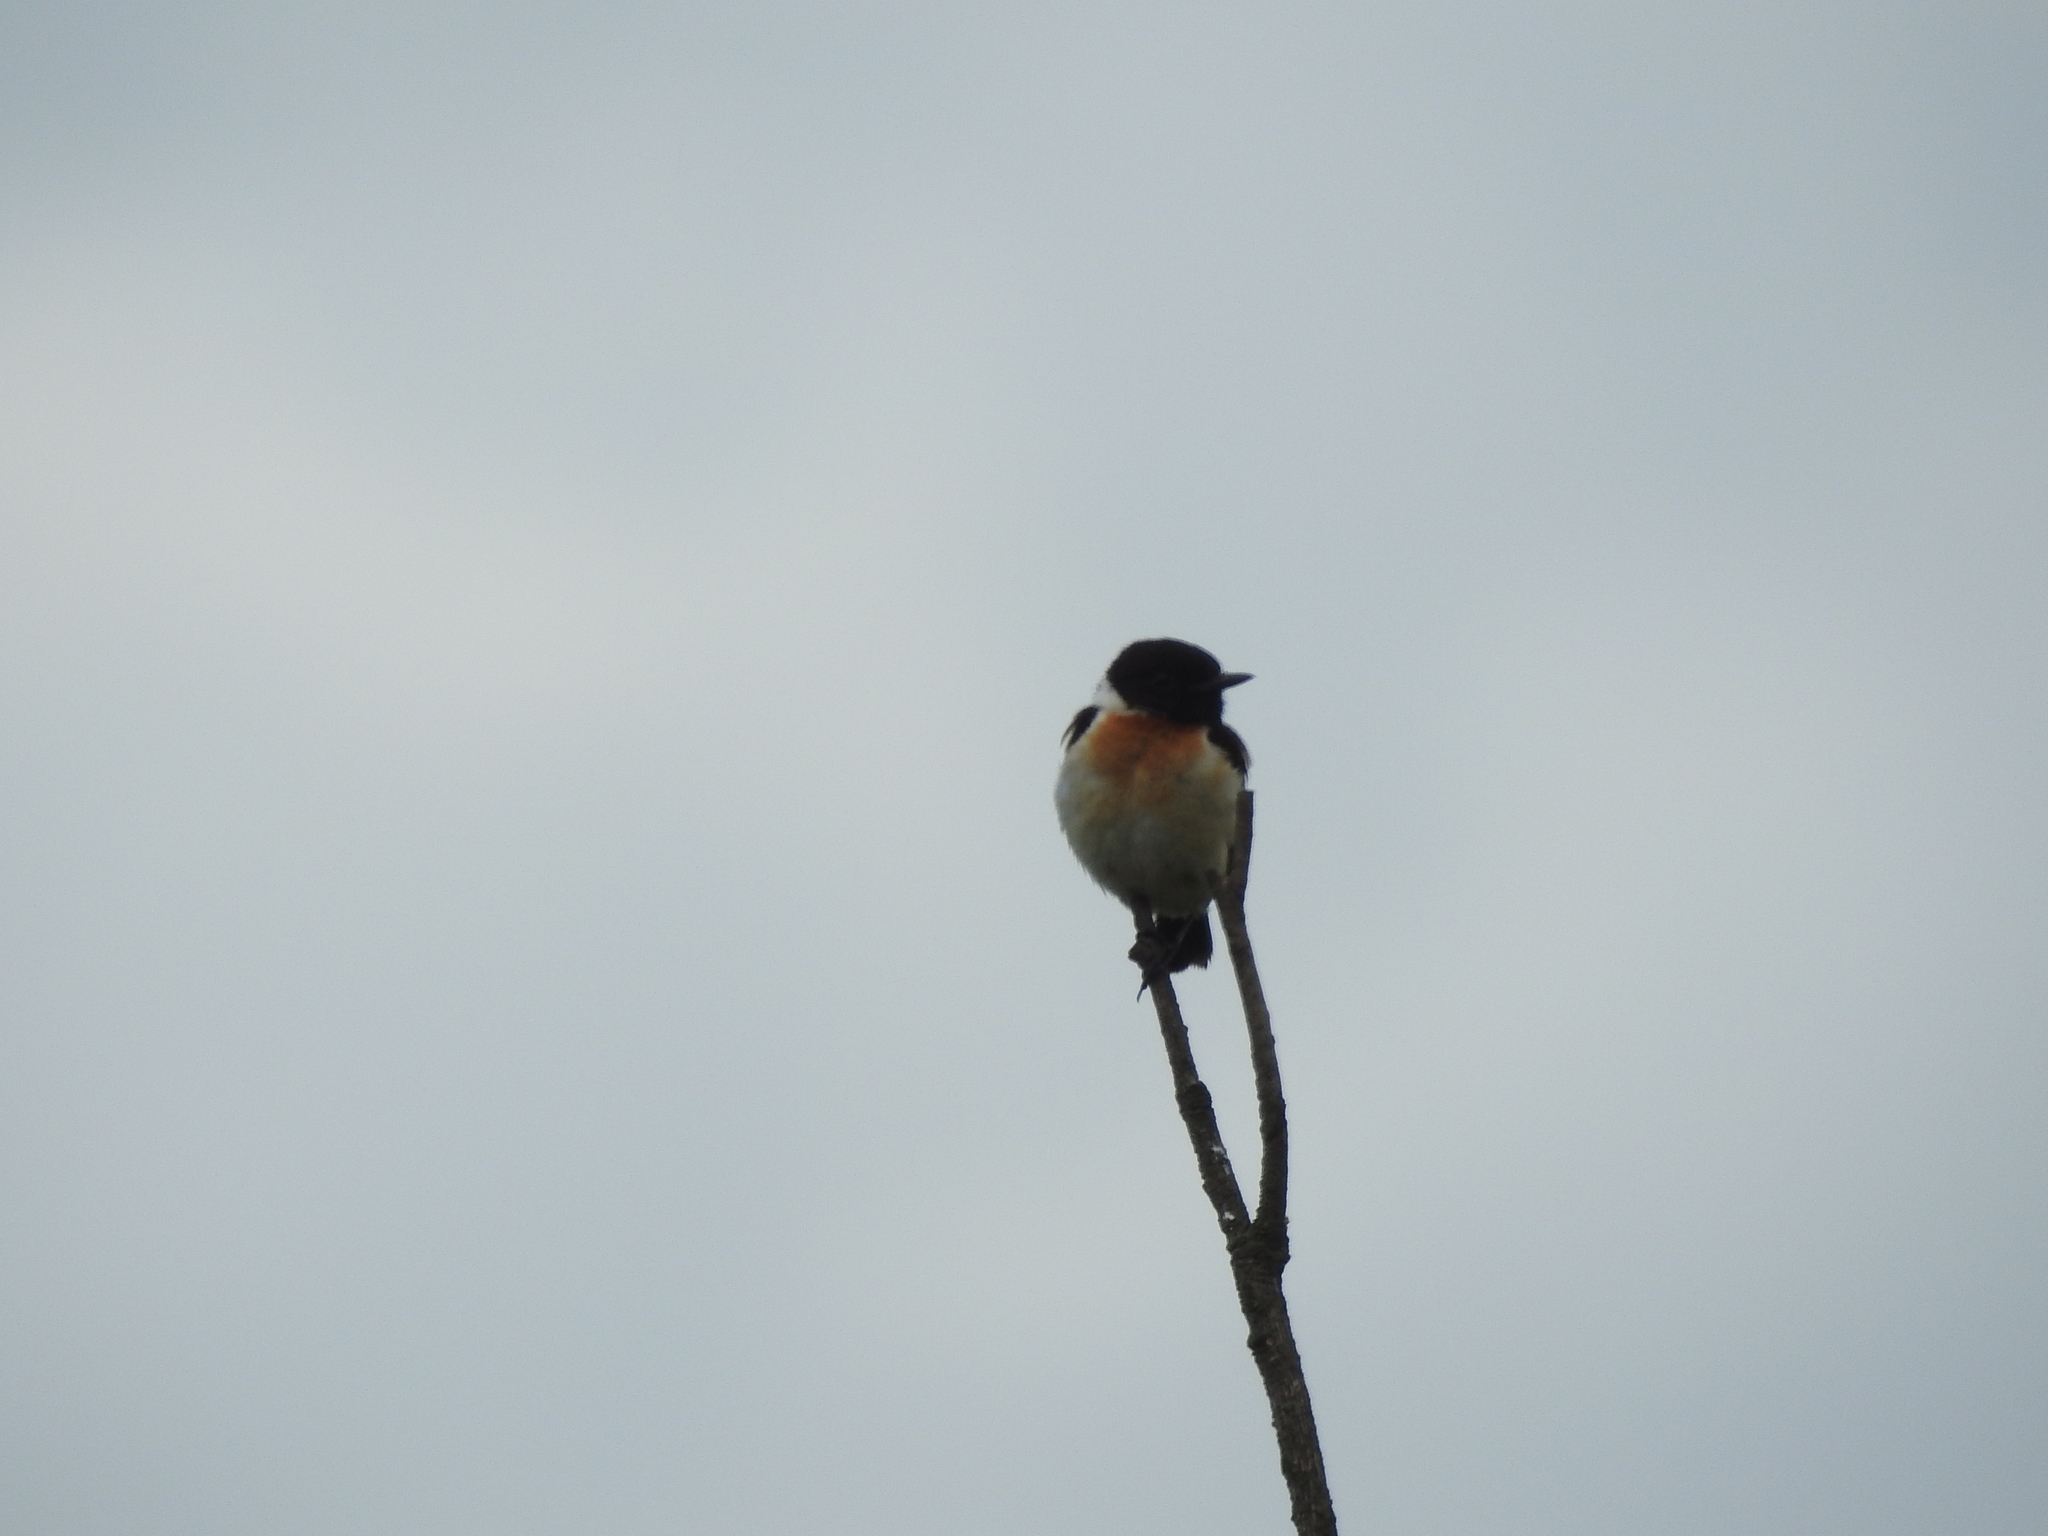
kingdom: Animalia
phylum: Chordata
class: Aves
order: Passeriformes
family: Muscicapidae
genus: Saxicola
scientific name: Saxicola maurus
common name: Siberian stonechat
